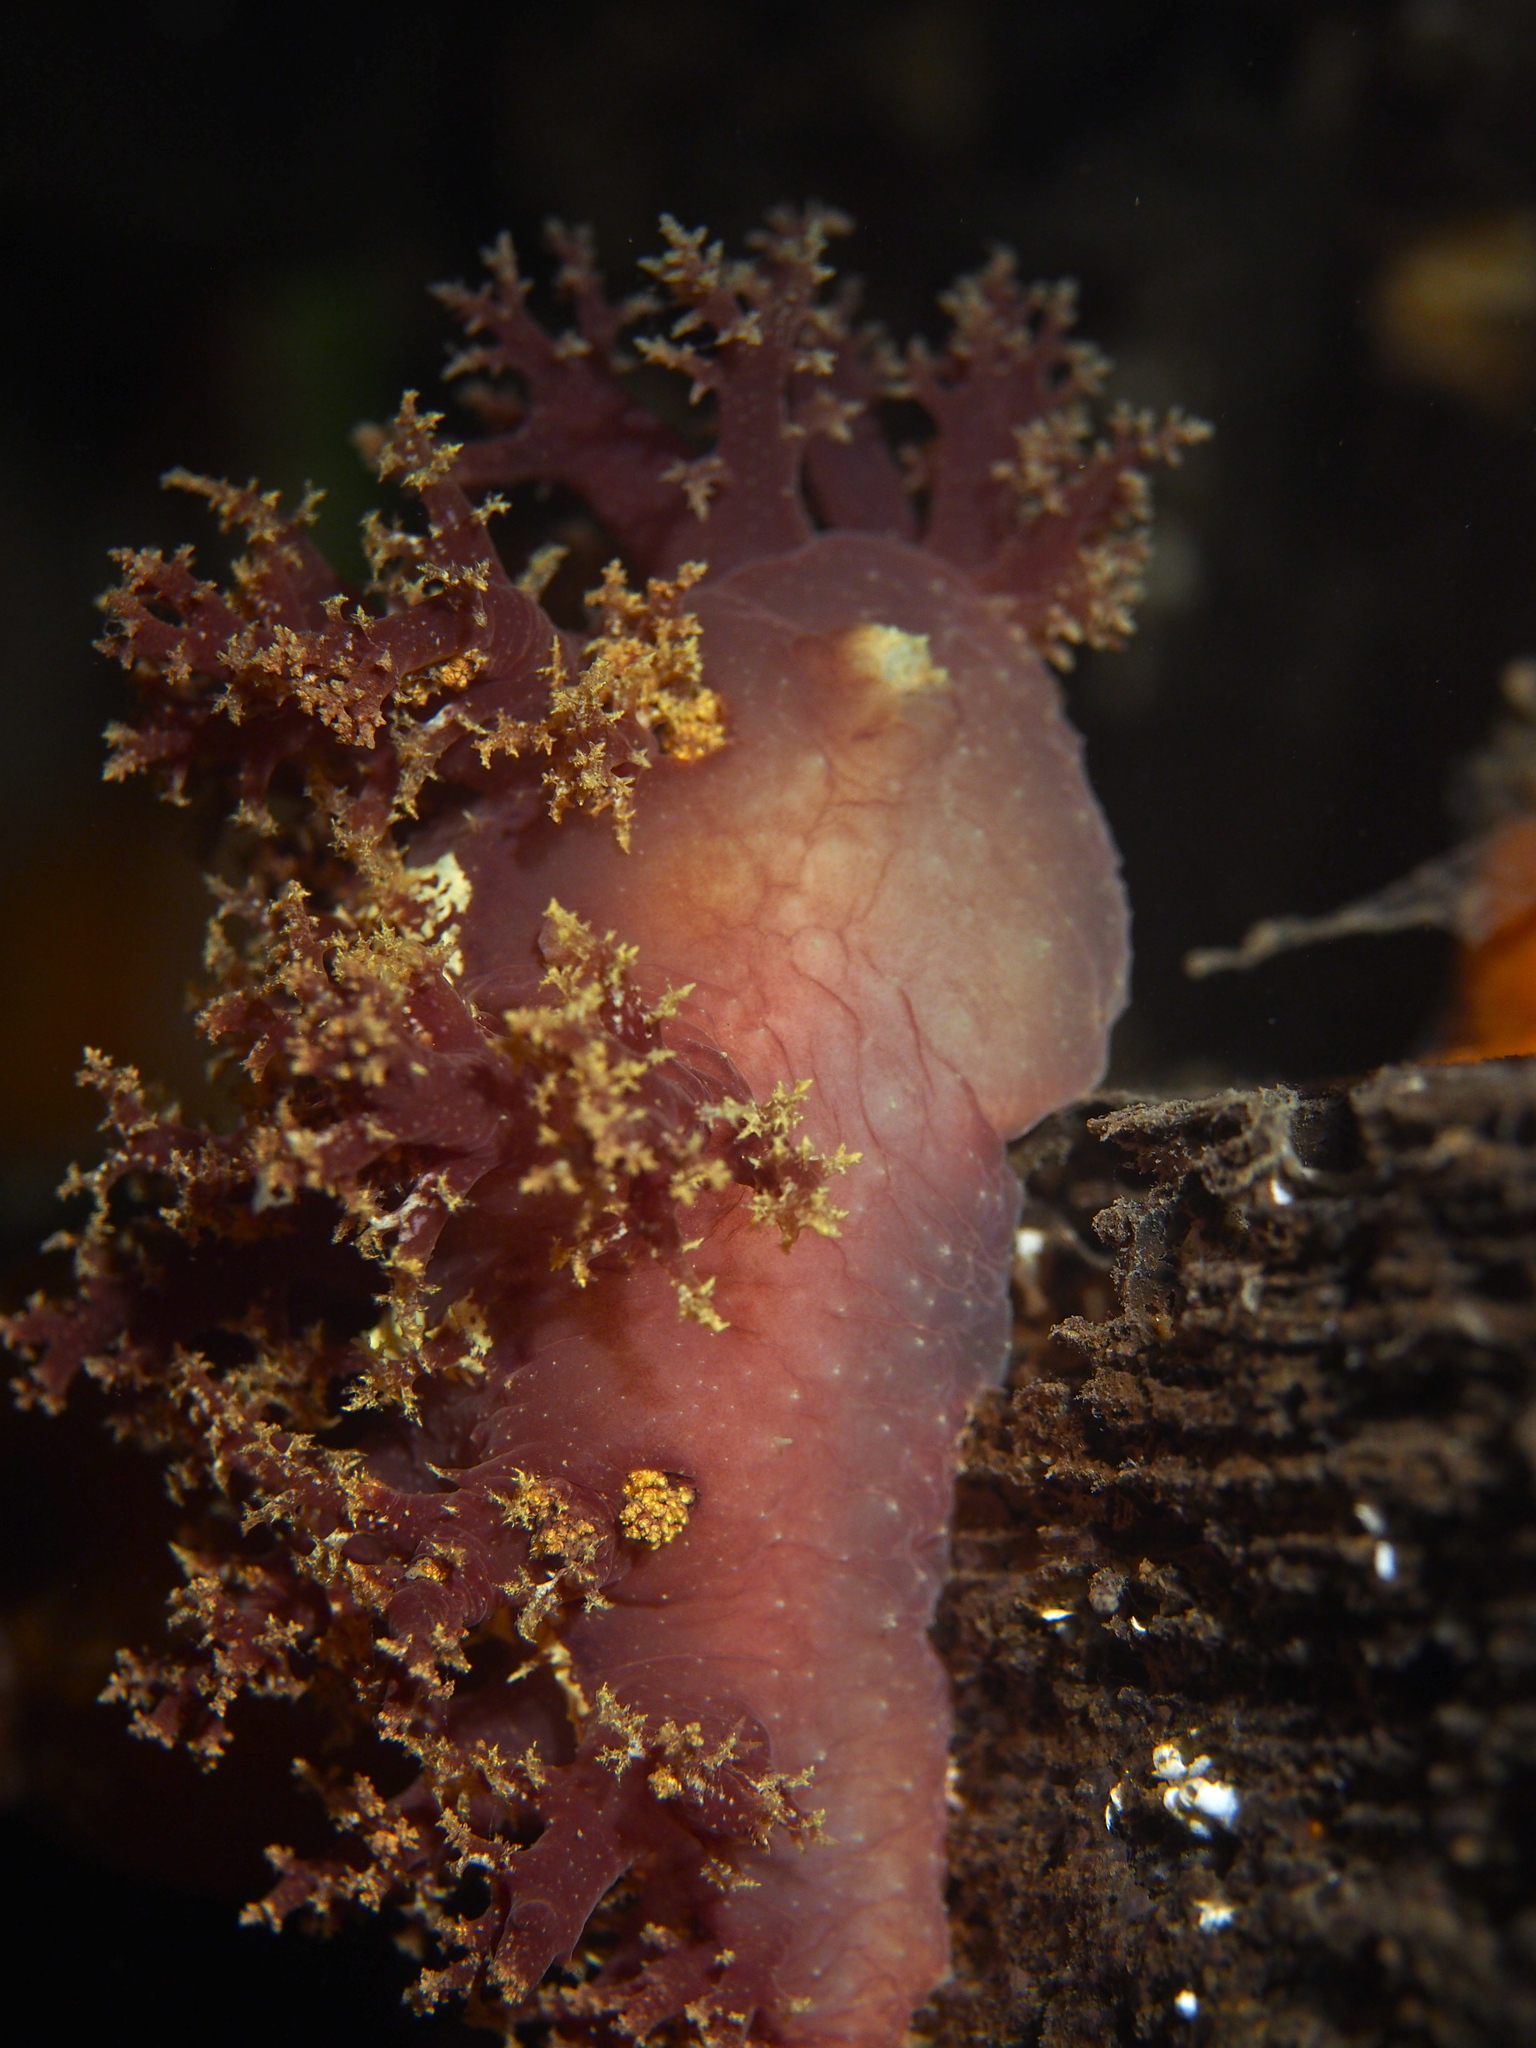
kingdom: Animalia
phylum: Mollusca
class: Gastropoda
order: Nudibranchia
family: Dendronotidae
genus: Dendronotus
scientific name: Dendronotus lacteus
